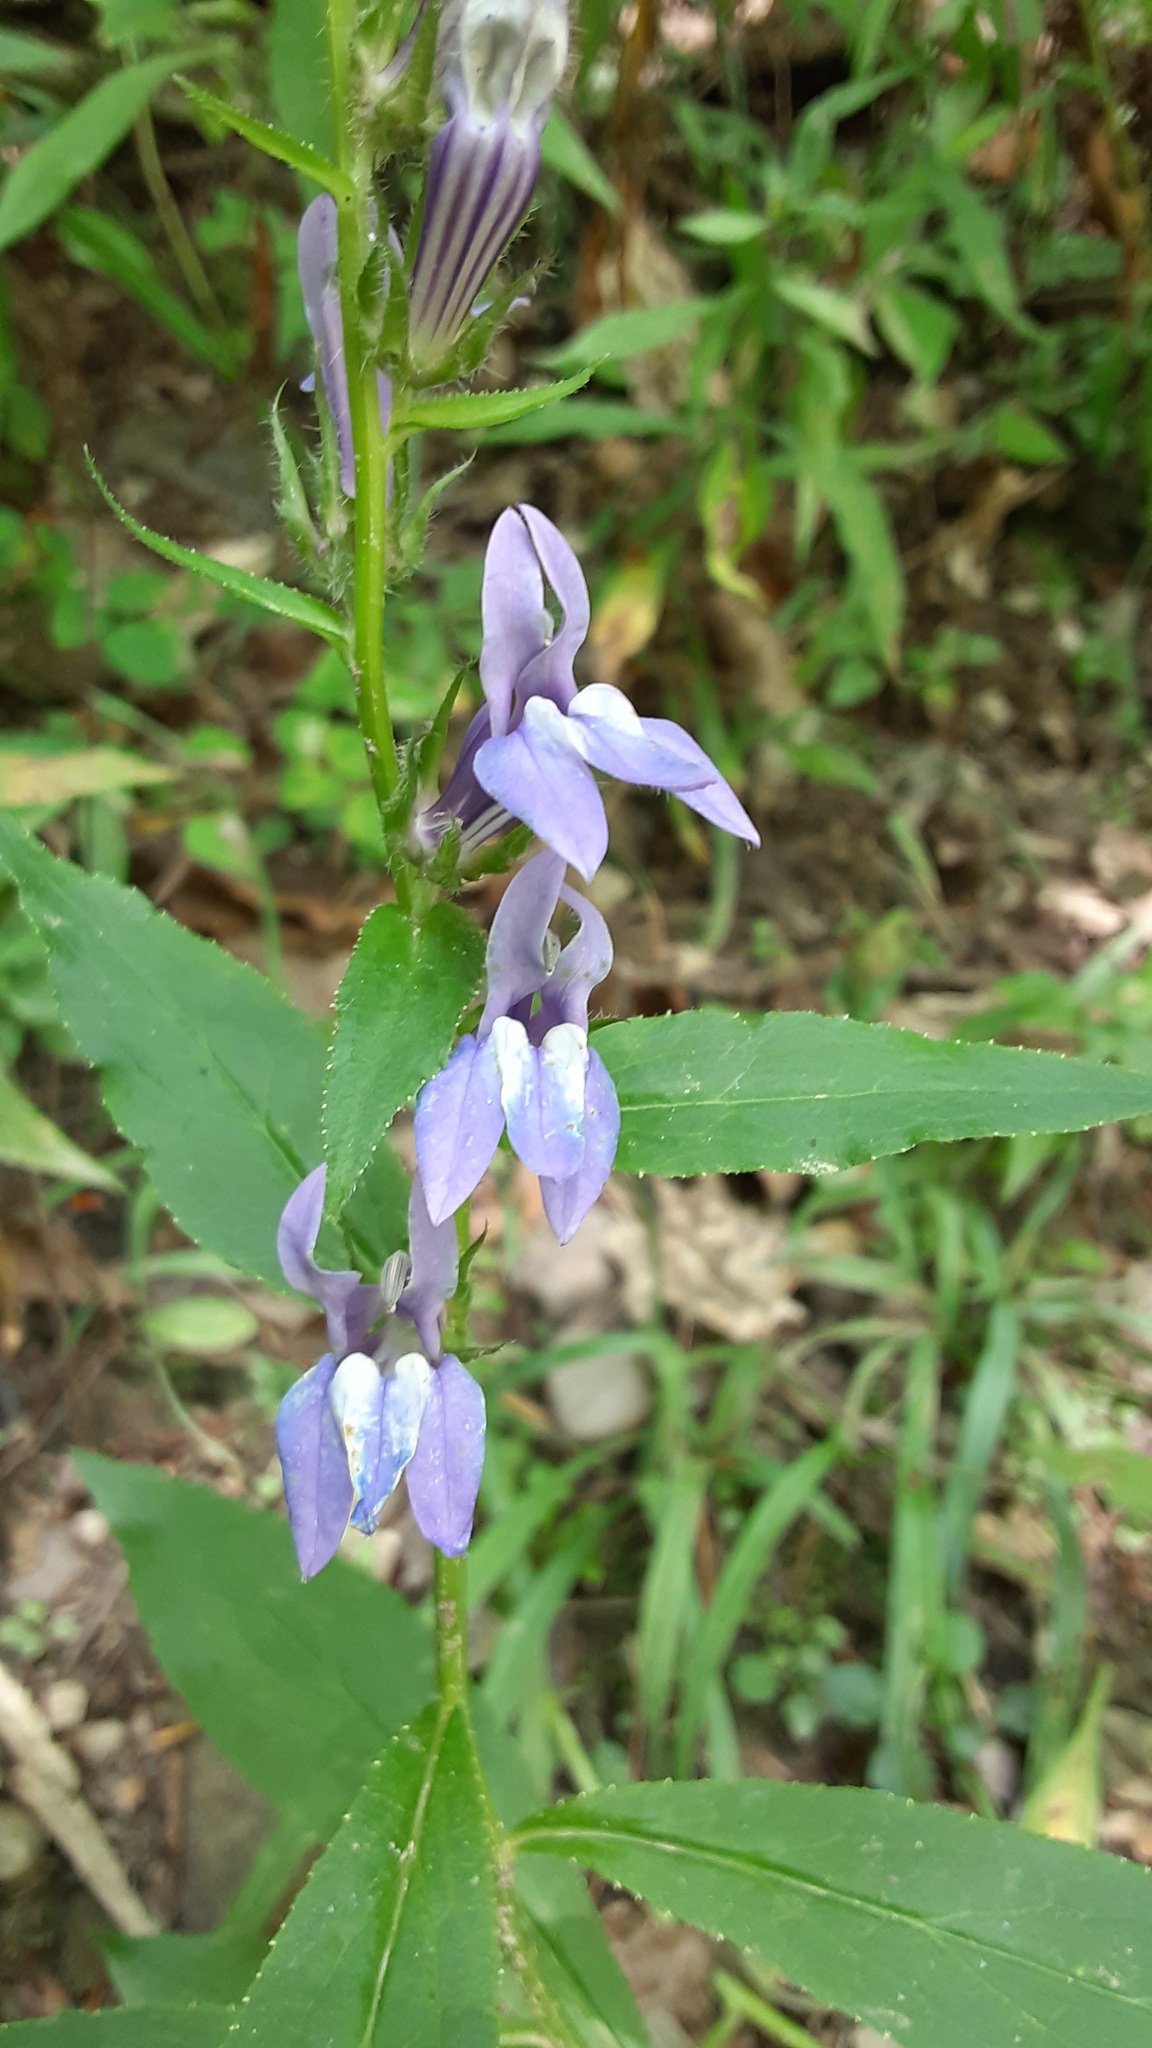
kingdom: Plantae
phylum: Tracheophyta
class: Magnoliopsida
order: Asterales
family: Campanulaceae
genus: Lobelia
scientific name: Lobelia siphilitica
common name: Great lobelia
